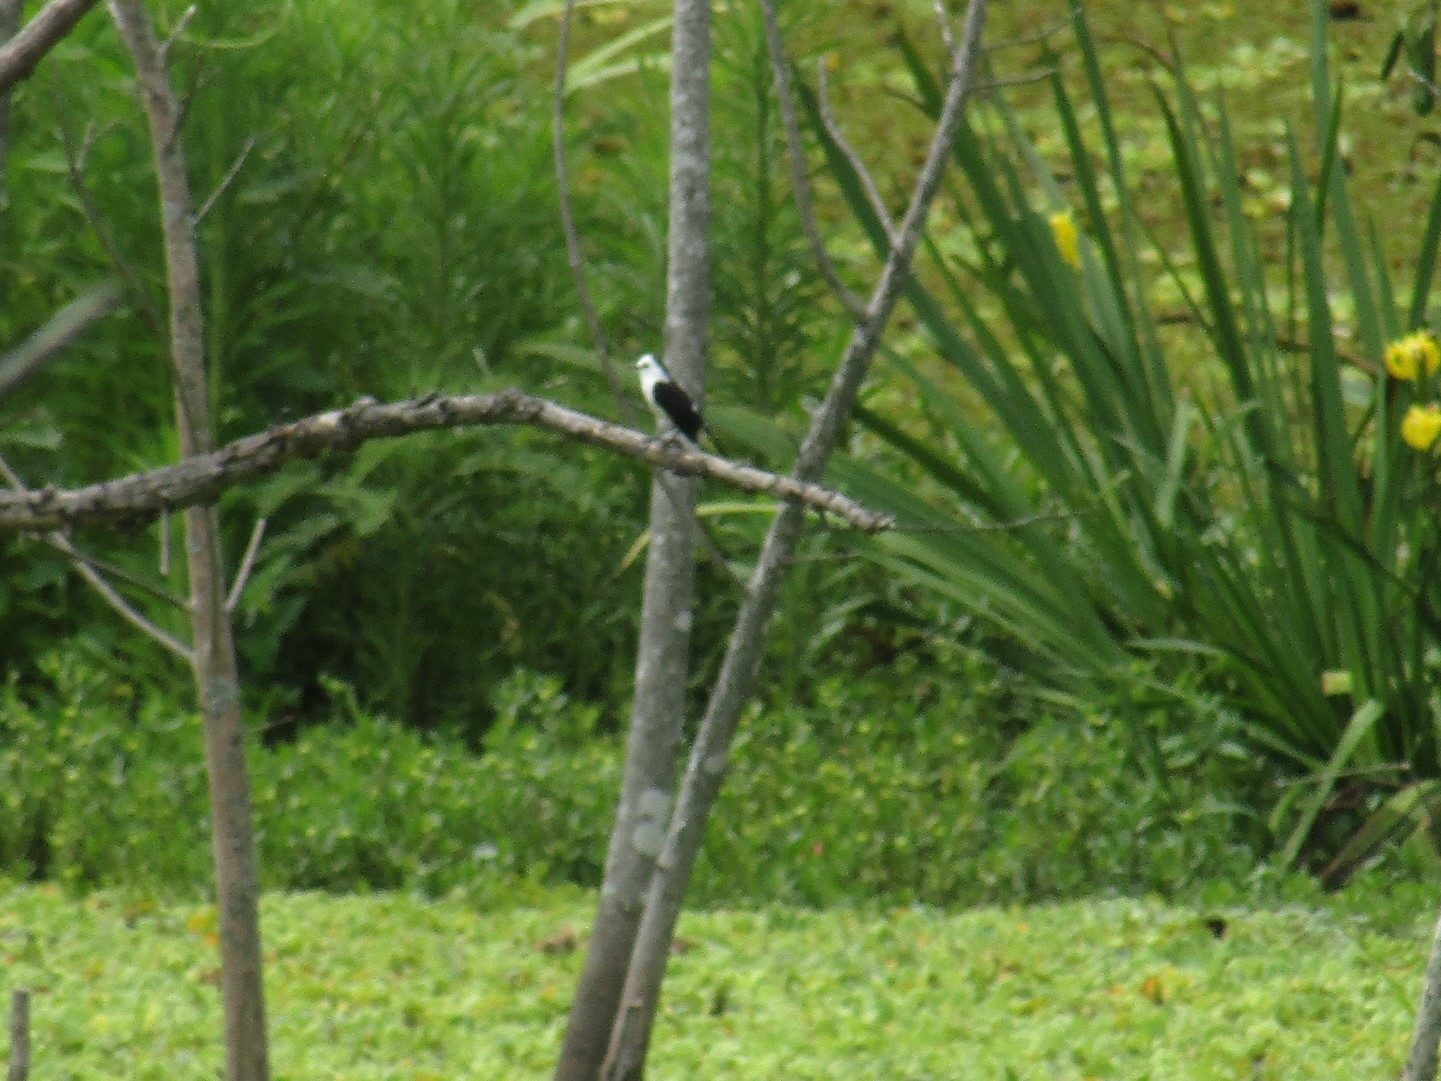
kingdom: Animalia
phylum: Chordata
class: Aves
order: Passeriformes
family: Tyrannidae
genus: Fluvicola
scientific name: Fluvicola pica
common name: Pied water-tyrant
